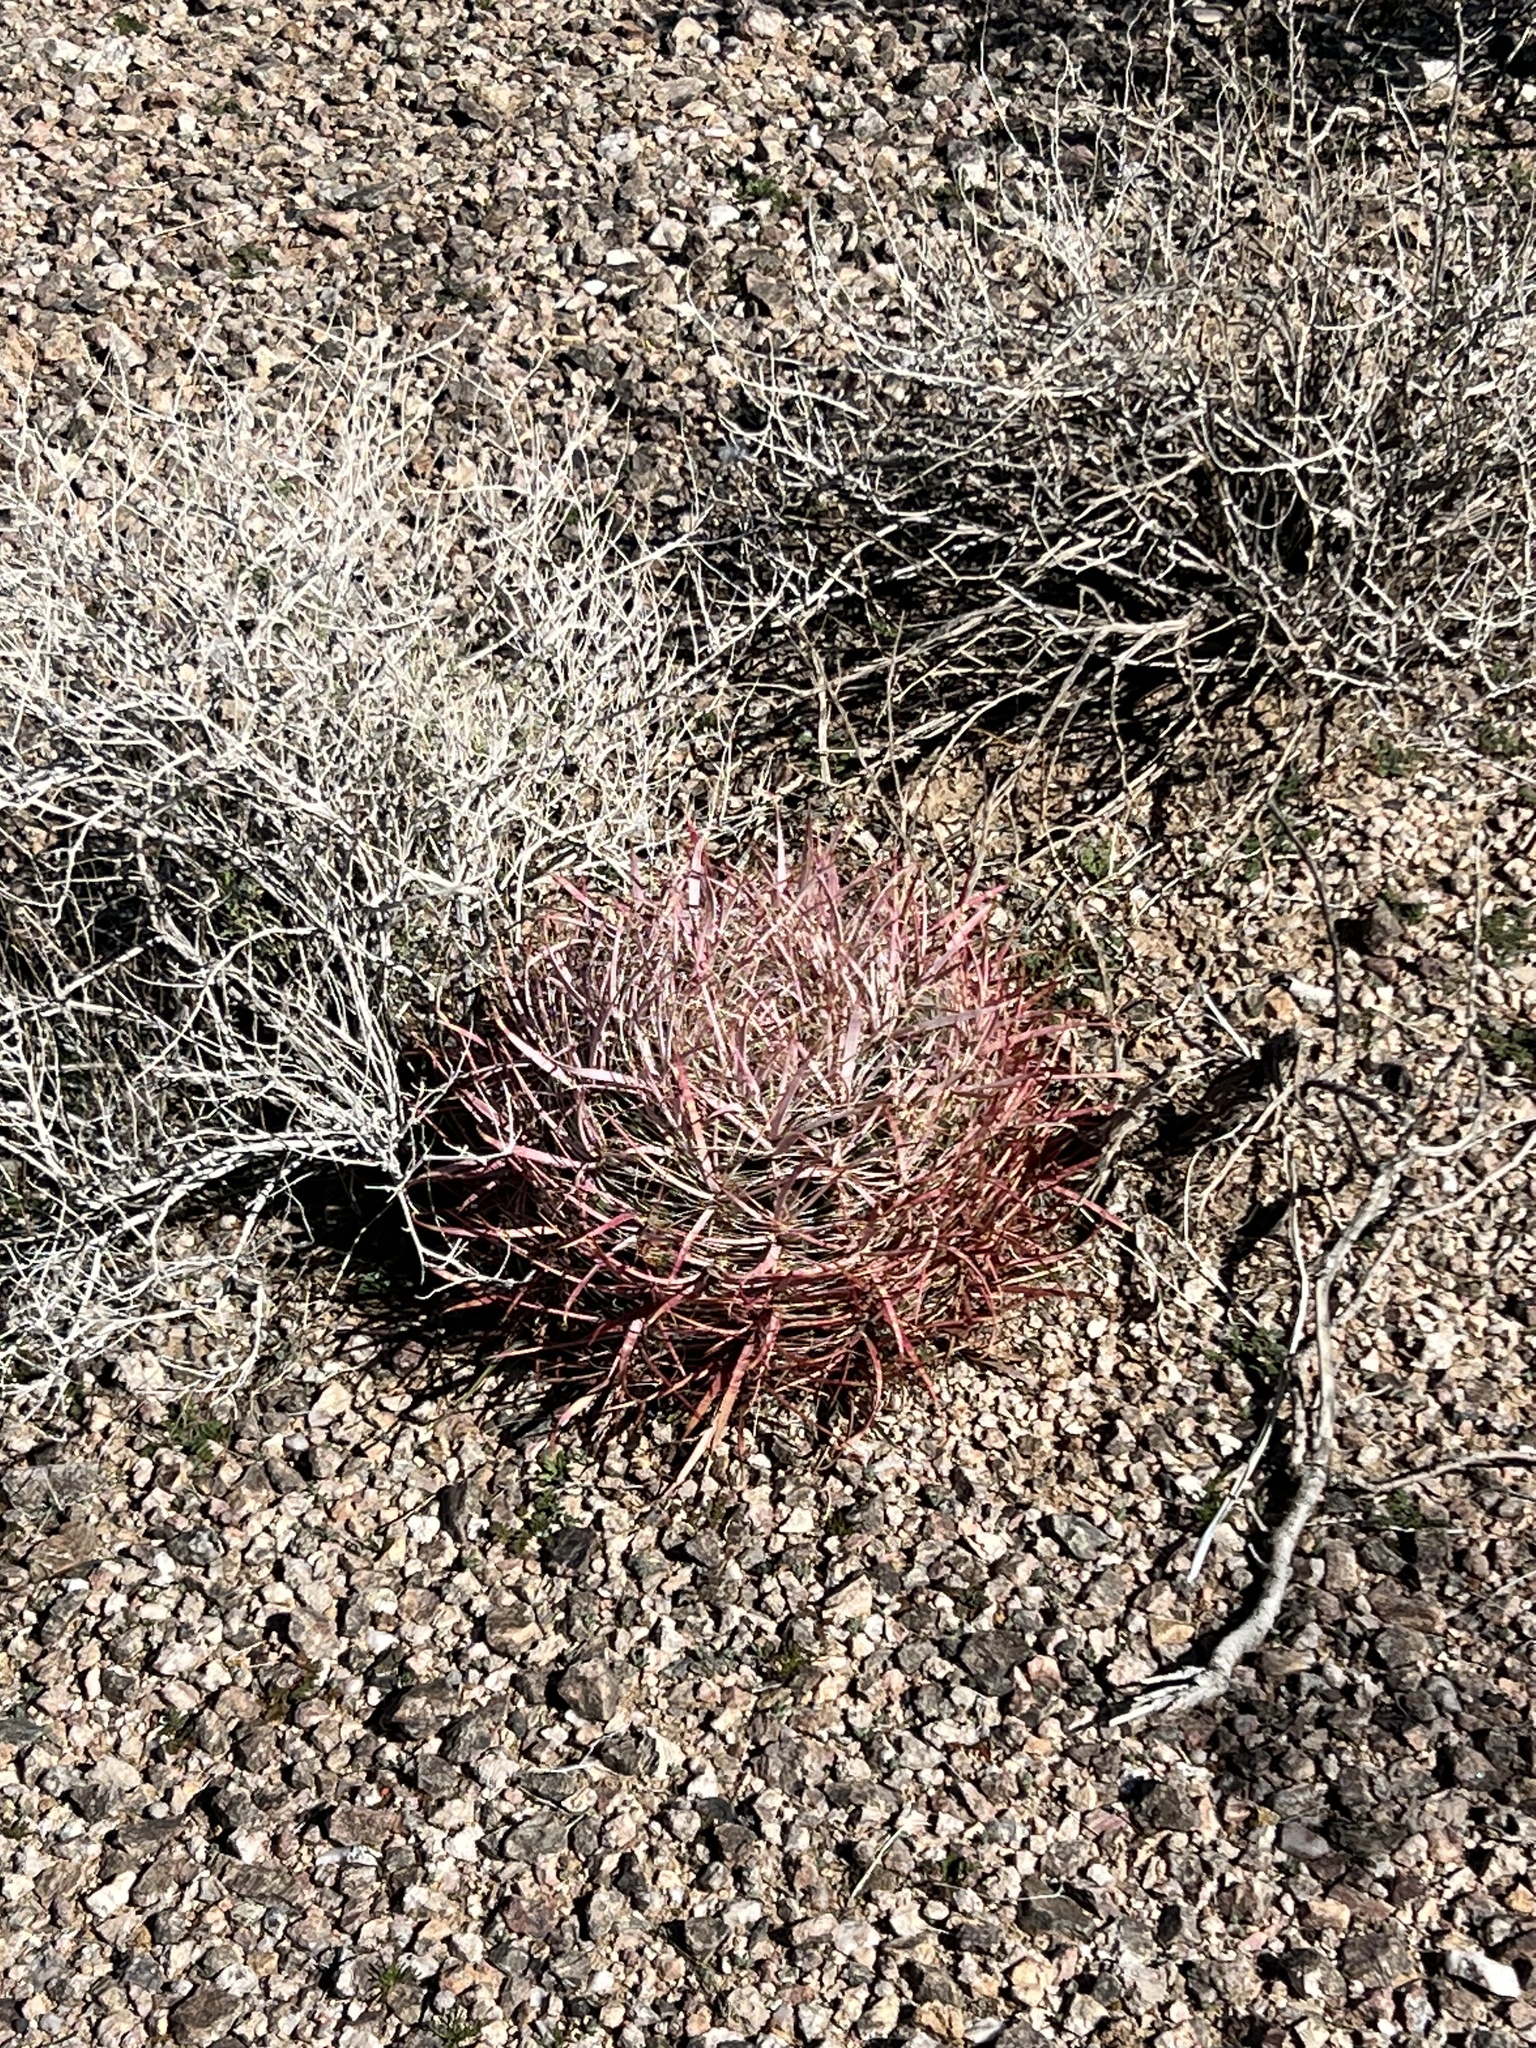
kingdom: Plantae
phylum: Tracheophyta
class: Magnoliopsida
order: Caryophyllales
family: Cactaceae
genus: Ferocactus
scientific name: Ferocactus cylindraceus
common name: California barrel cactus
